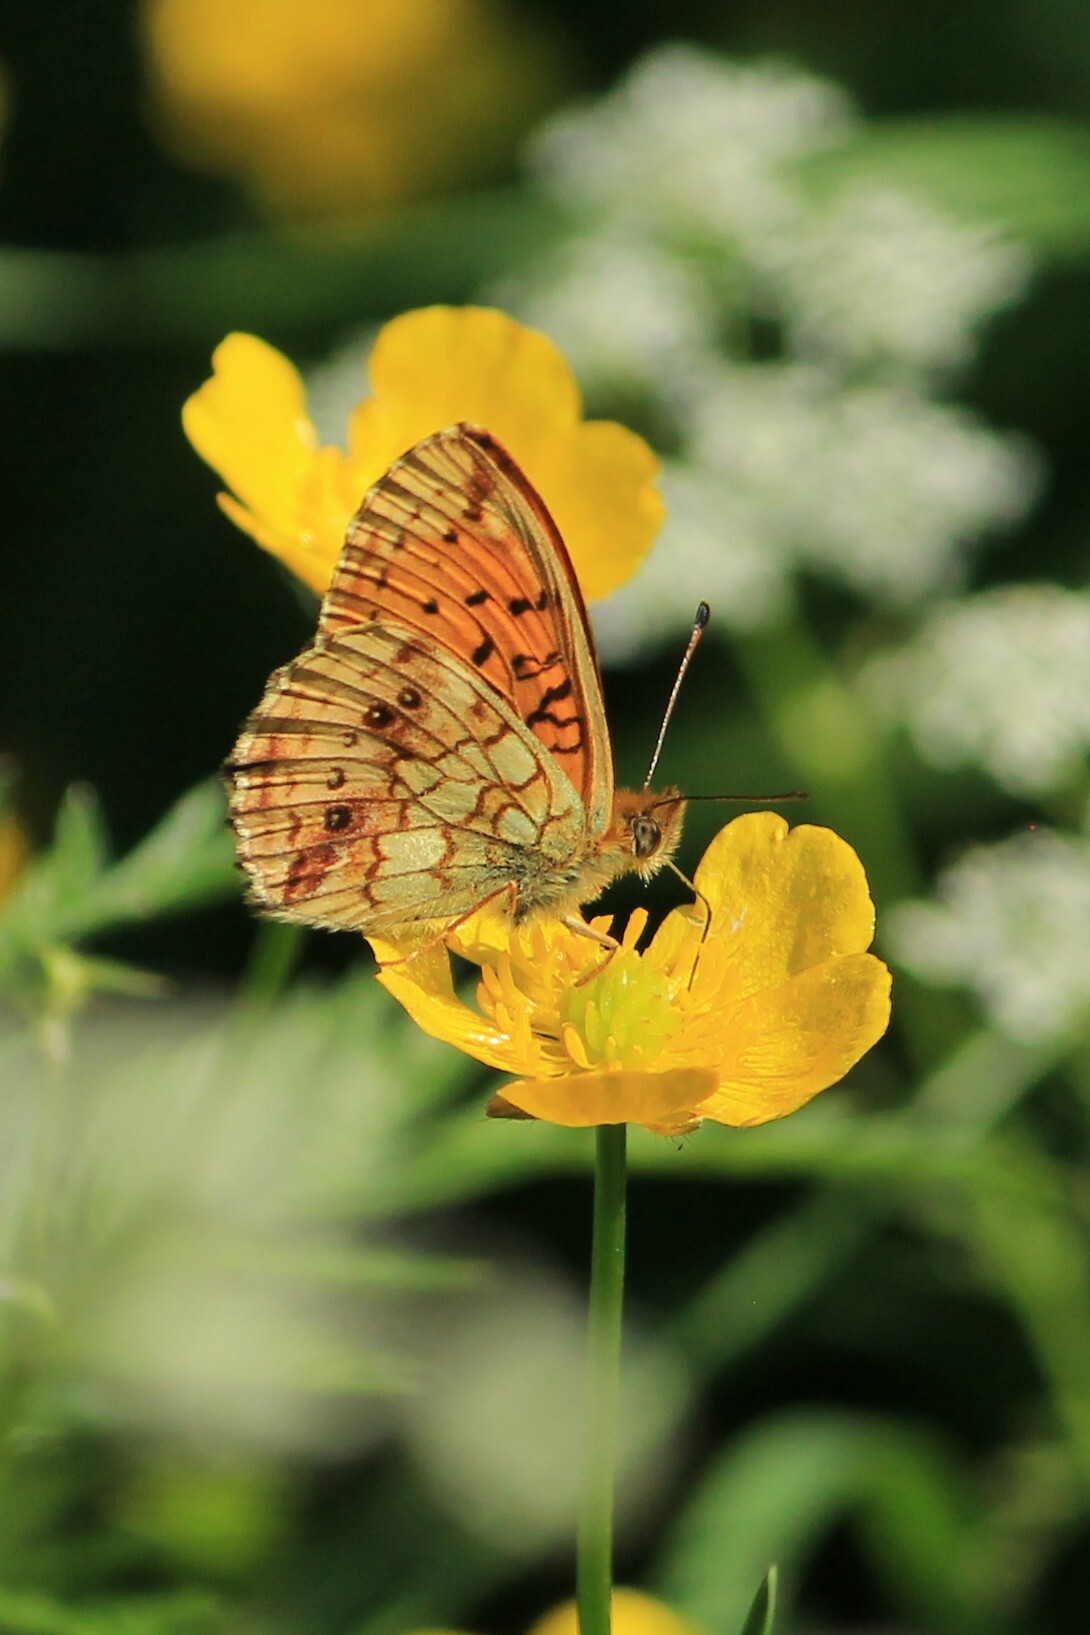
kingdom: Animalia
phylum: Arthropoda
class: Insecta
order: Lepidoptera
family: Nymphalidae
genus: Brenthis
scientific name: Brenthis ino
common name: Lesser marbled fritillary
